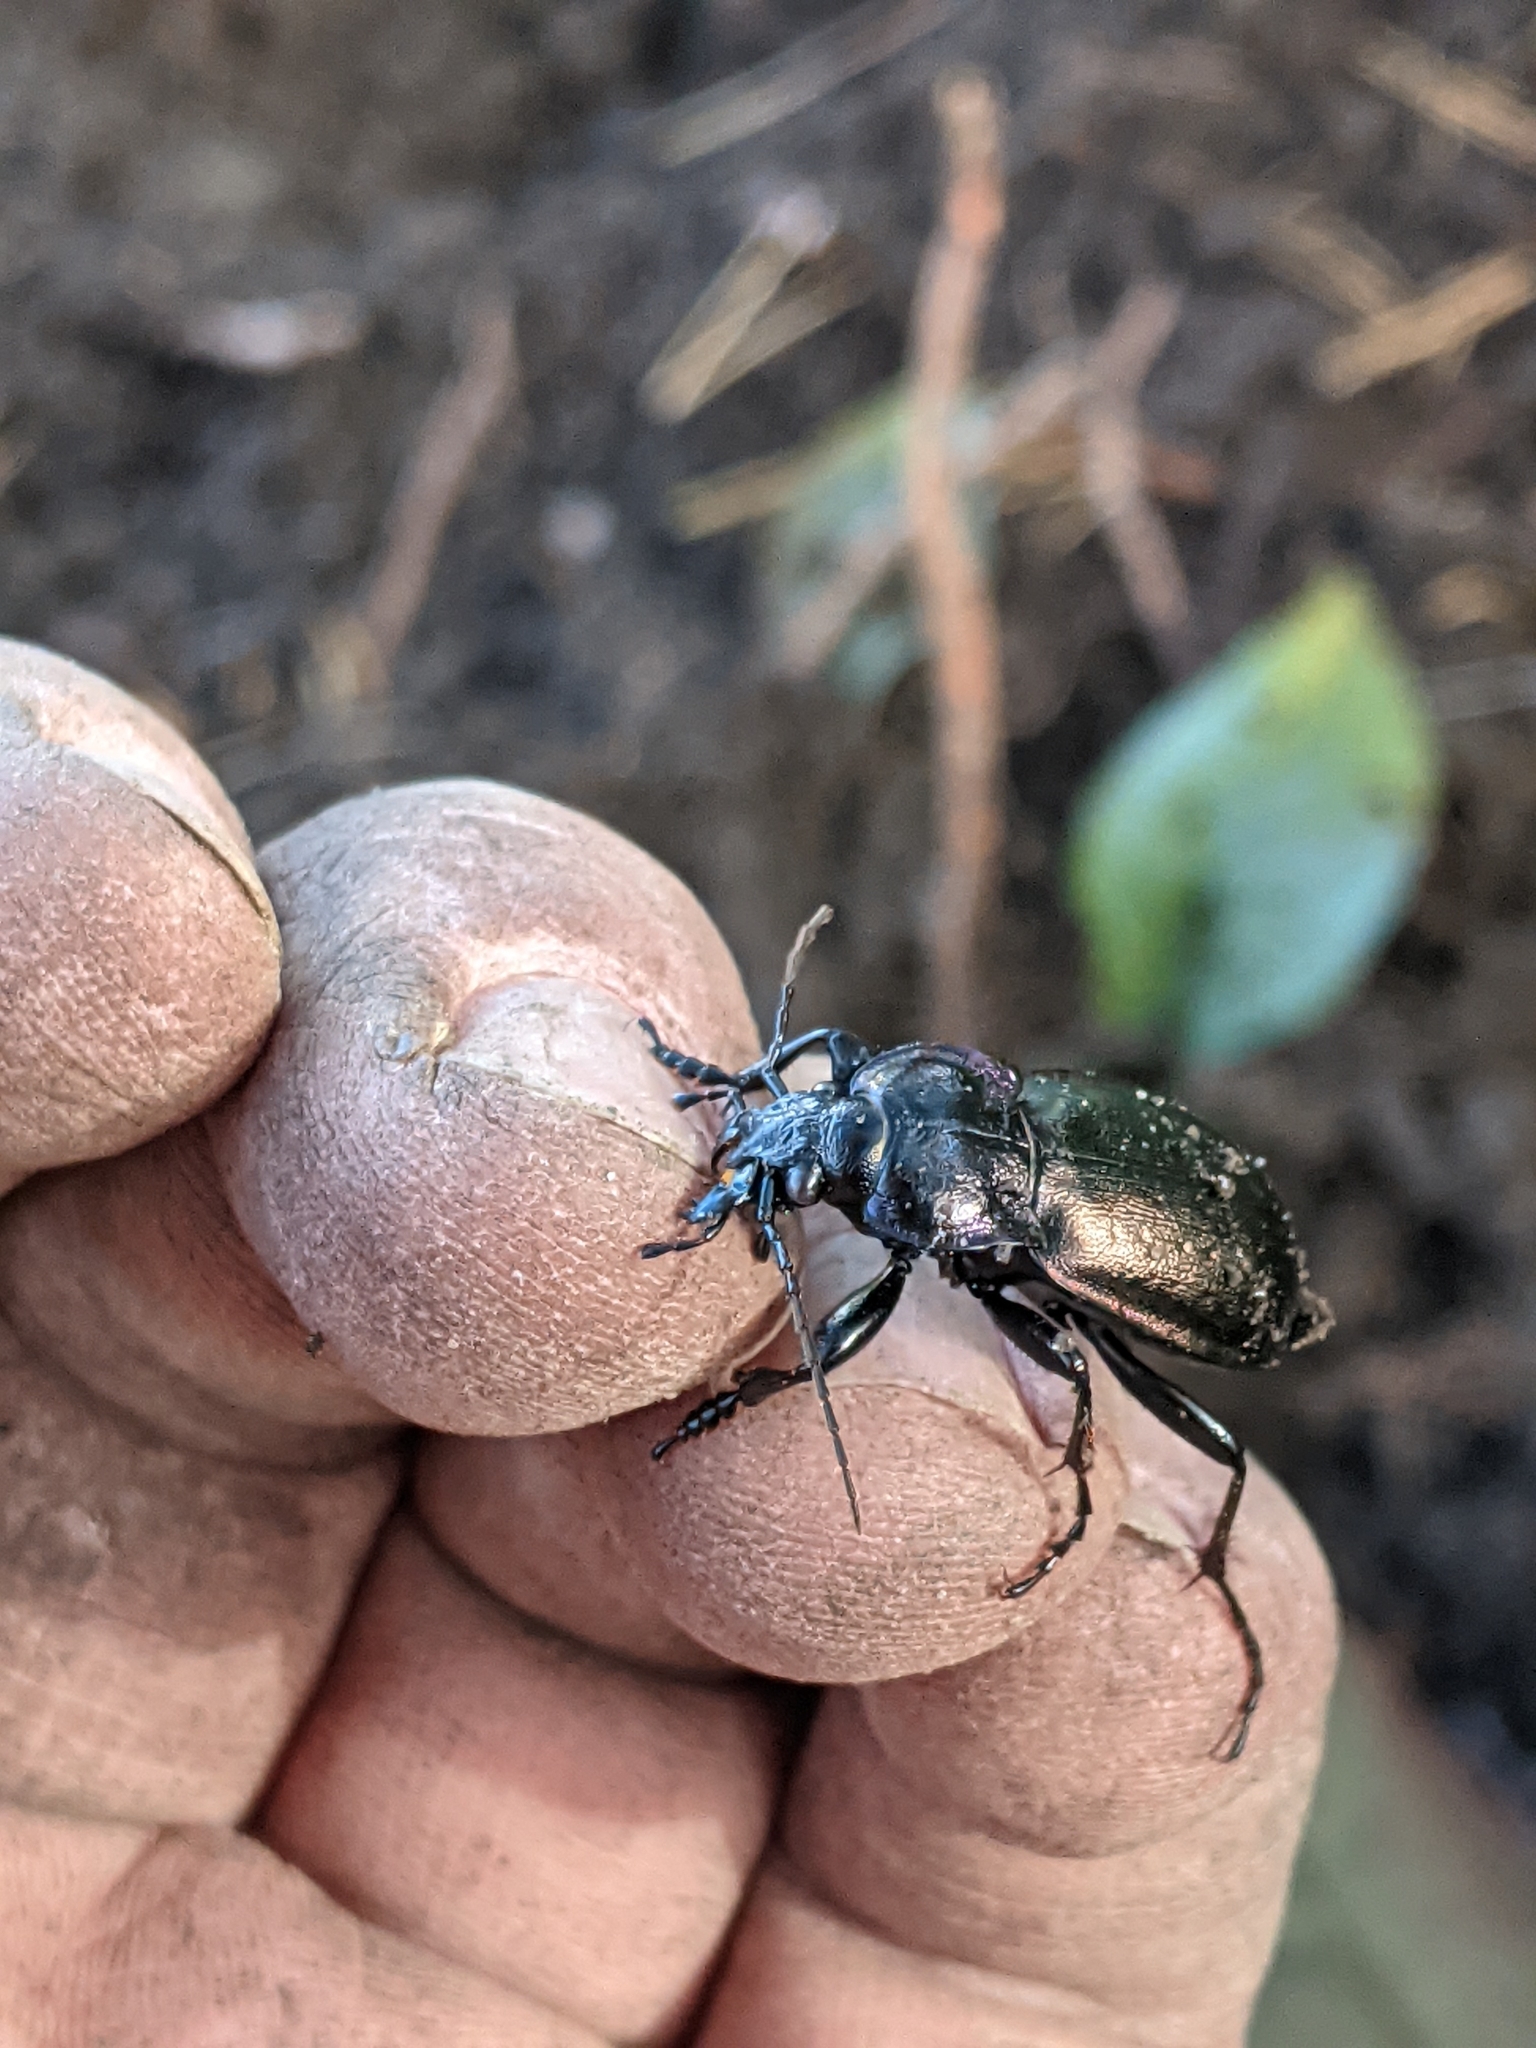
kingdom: Animalia
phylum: Arthropoda
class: Insecta
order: Coleoptera
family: Carabidae
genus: Carabus
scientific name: Carabus nemoralis
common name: European ground beetle
